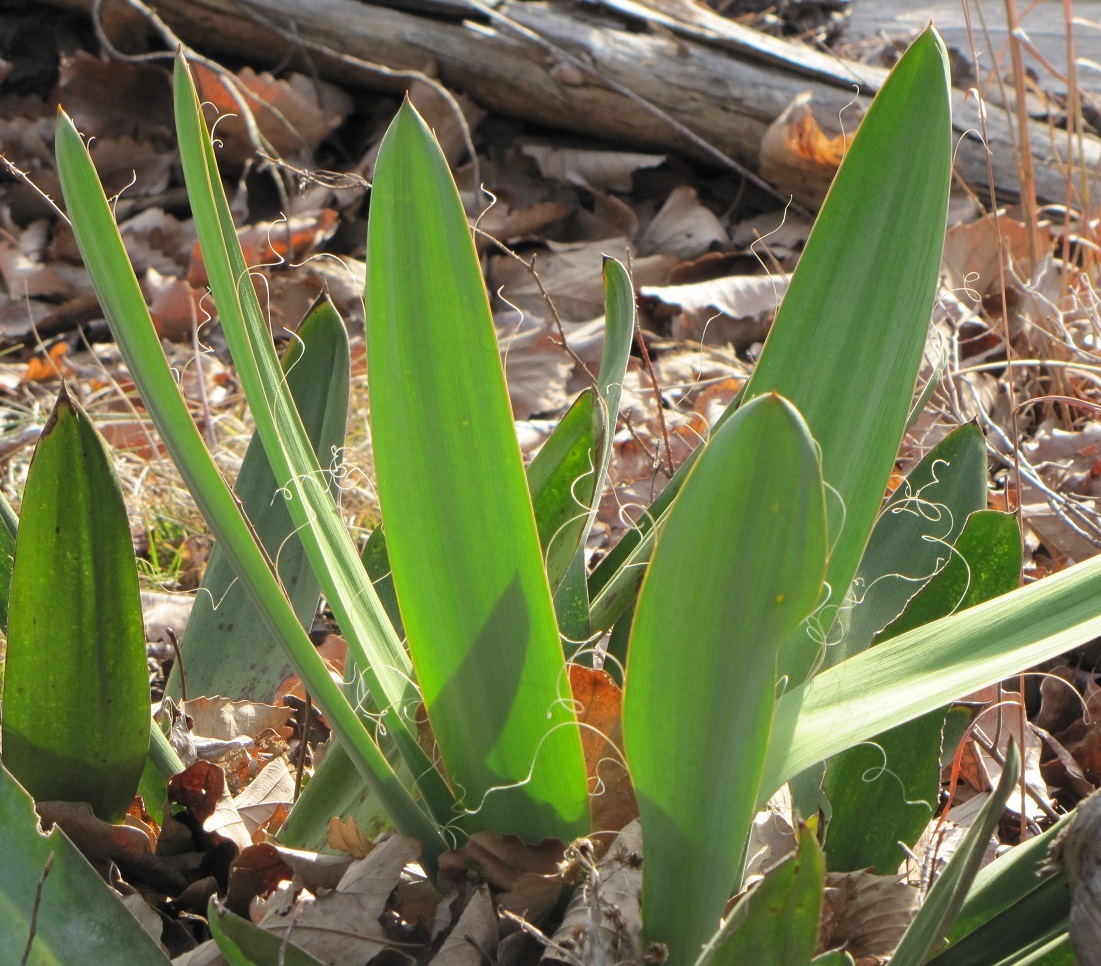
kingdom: Plantae
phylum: Tracheophyta
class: Liliopsida
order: Asparagales
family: Asparagaceae
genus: Yucca
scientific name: Yucca filamentosa
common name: Adam's-needle
